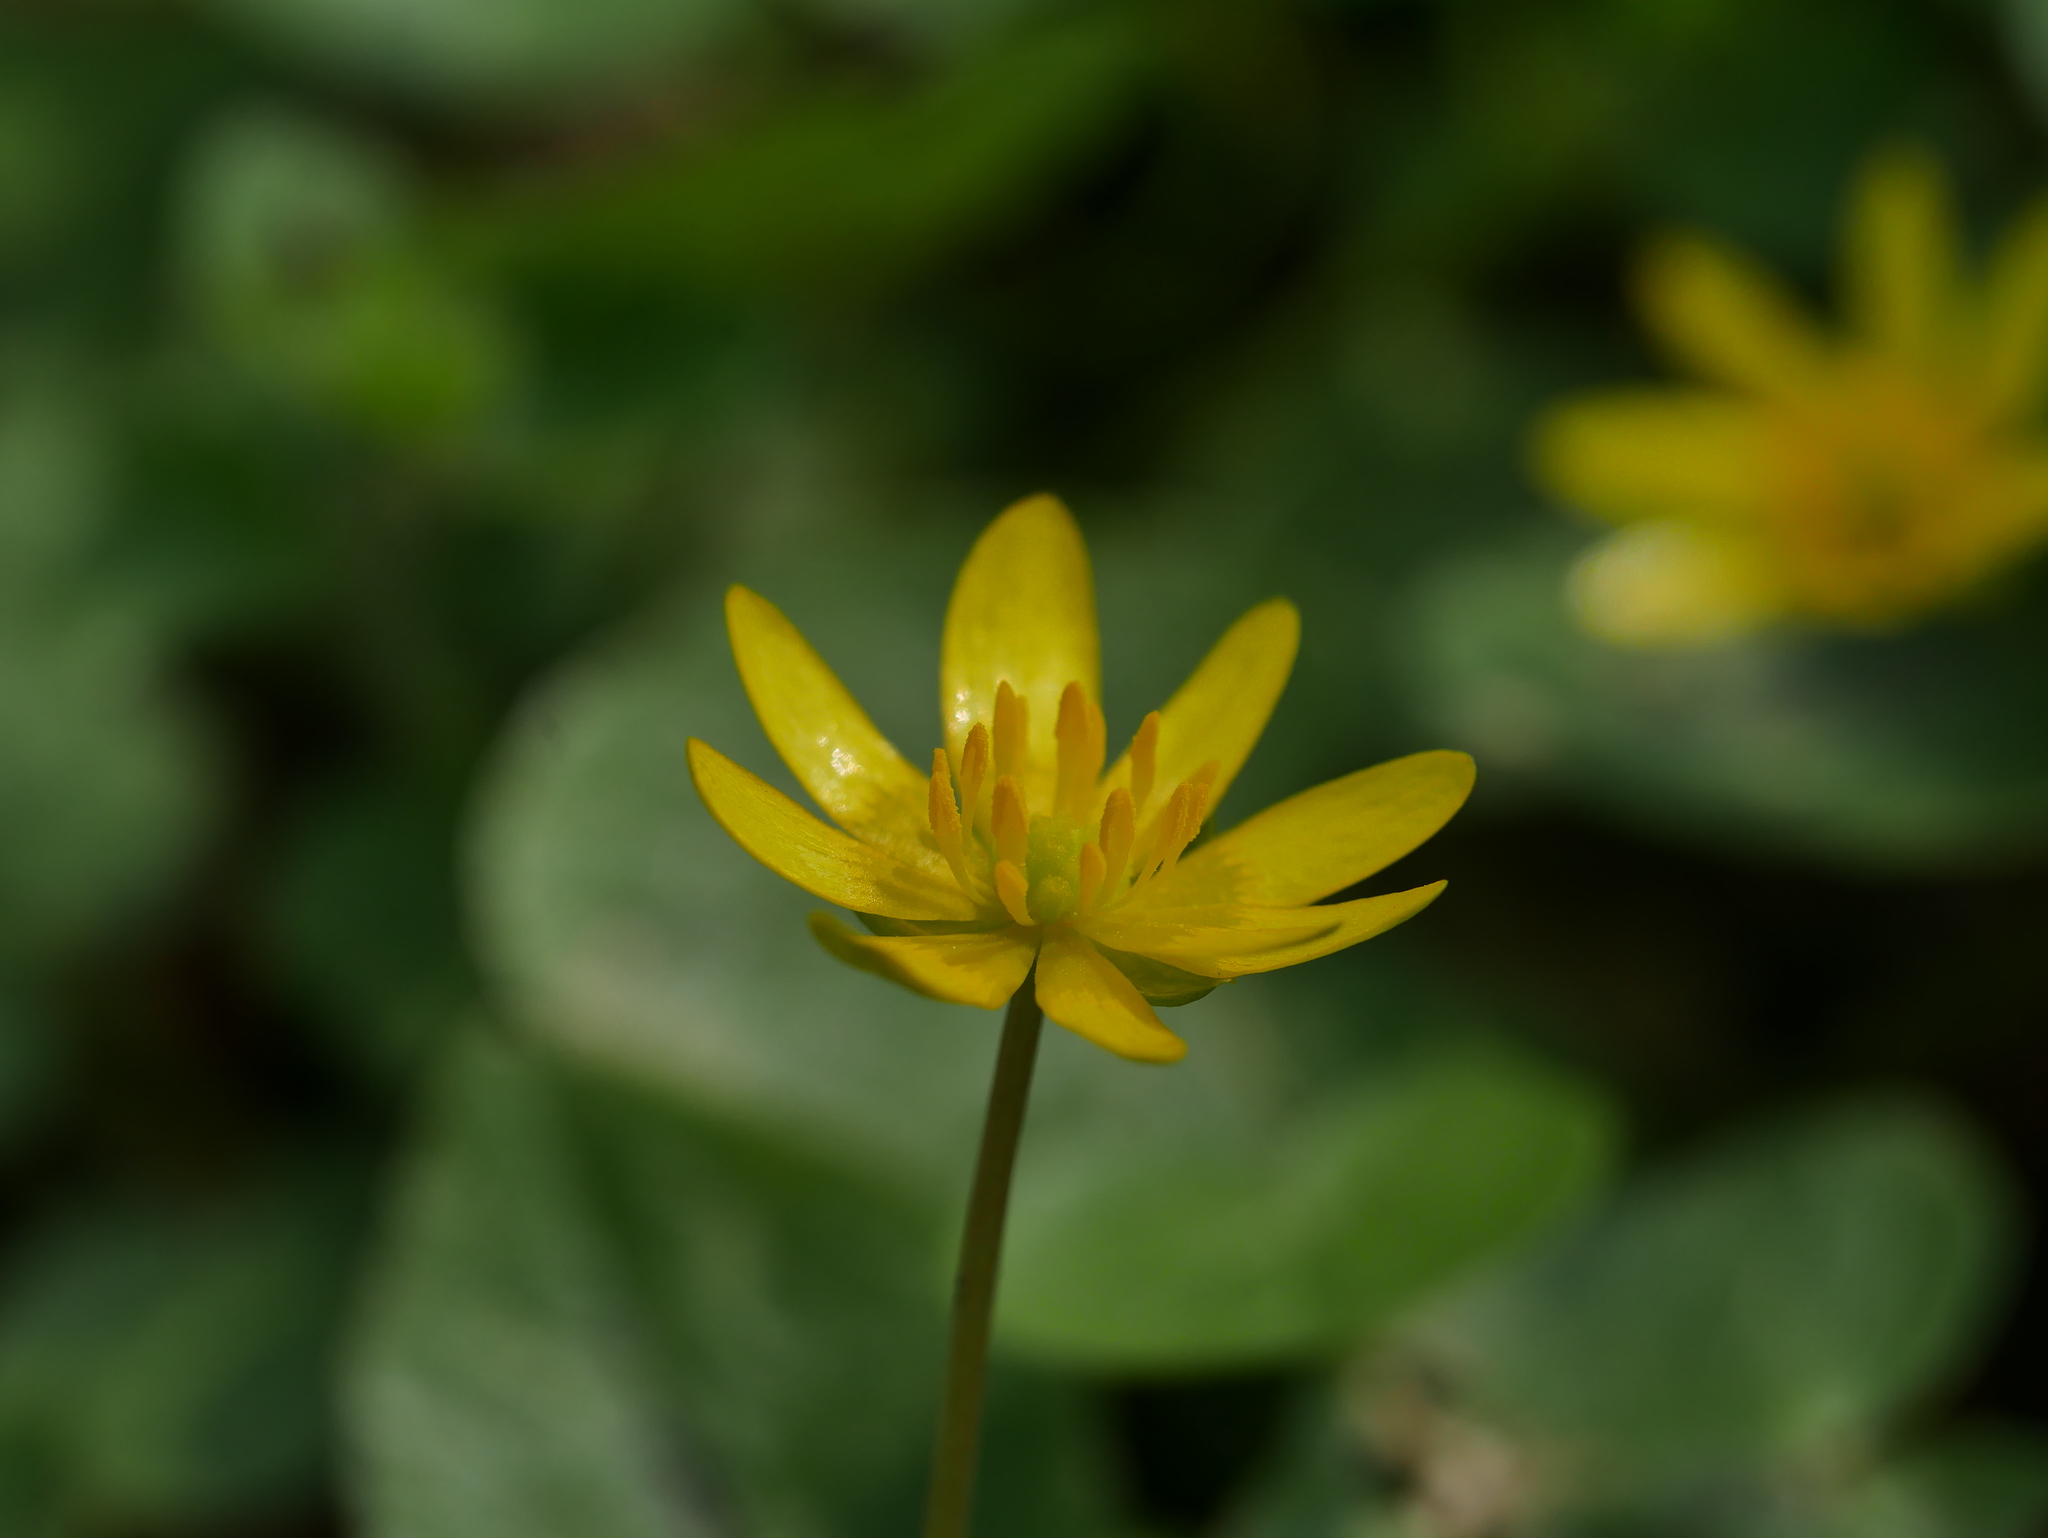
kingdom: Plantae
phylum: Tracheophyta
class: Magnoliopsida
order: Ranunculales
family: Ranunculaceae
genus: Ficaria
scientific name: Ficaria verna
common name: Lesser celandine
